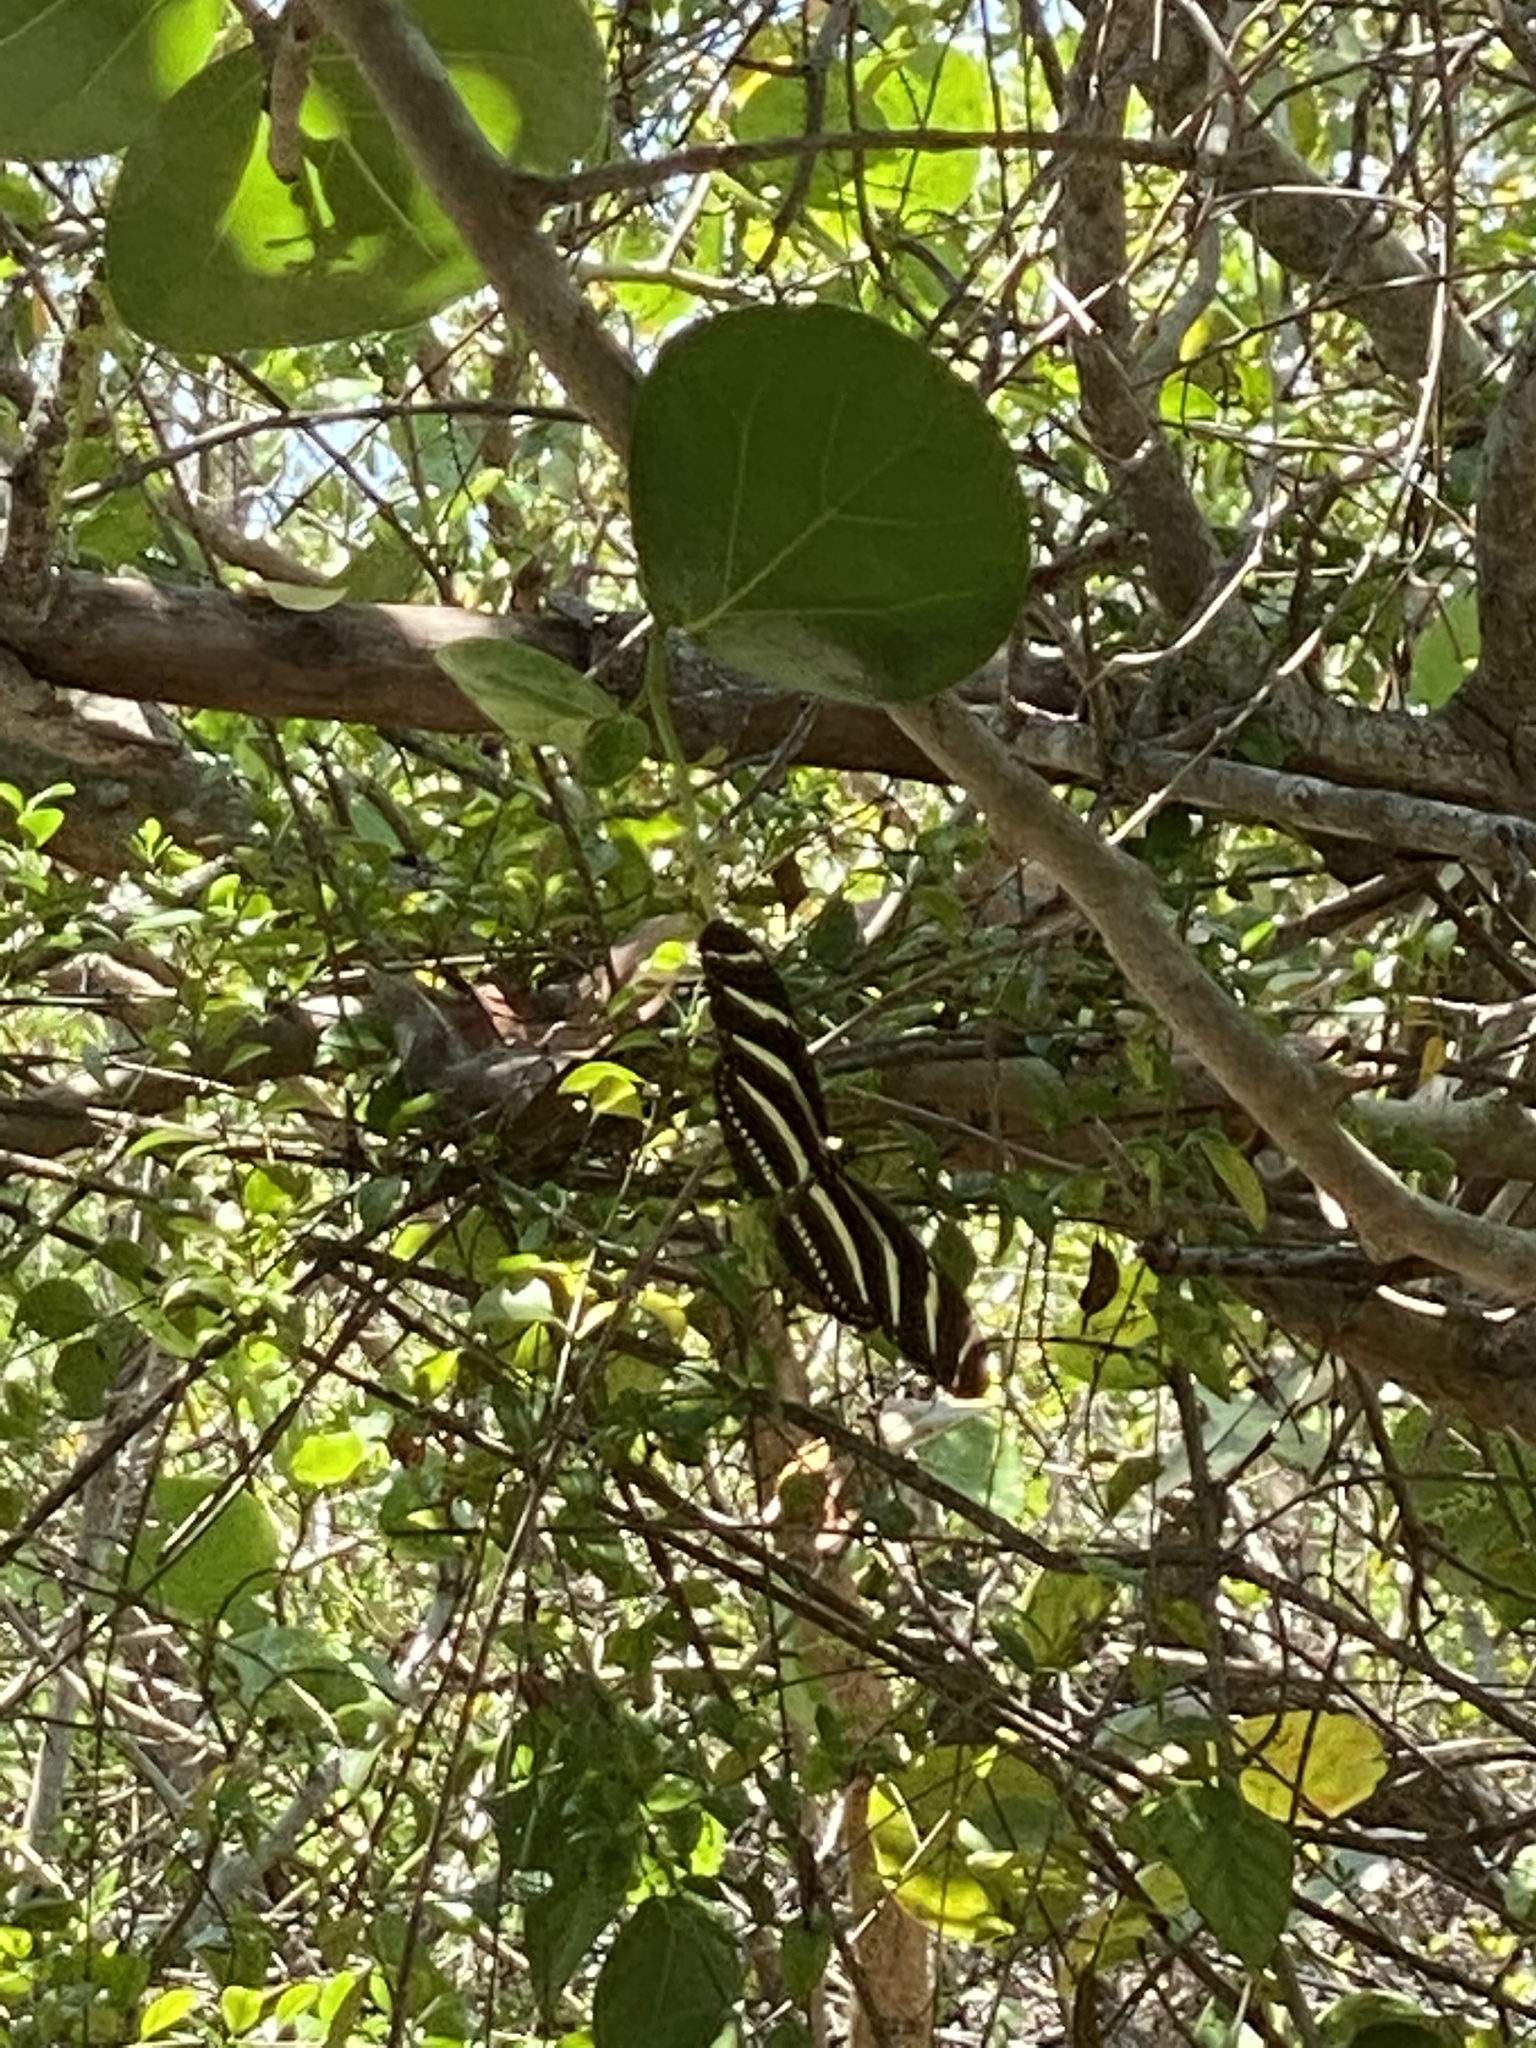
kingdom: Animalia
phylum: Arthropoda
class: Insecta
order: Lepidoptera
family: Nymphalidae
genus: Heliconius
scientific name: Heliconius charithonia
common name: Zebra long wing
